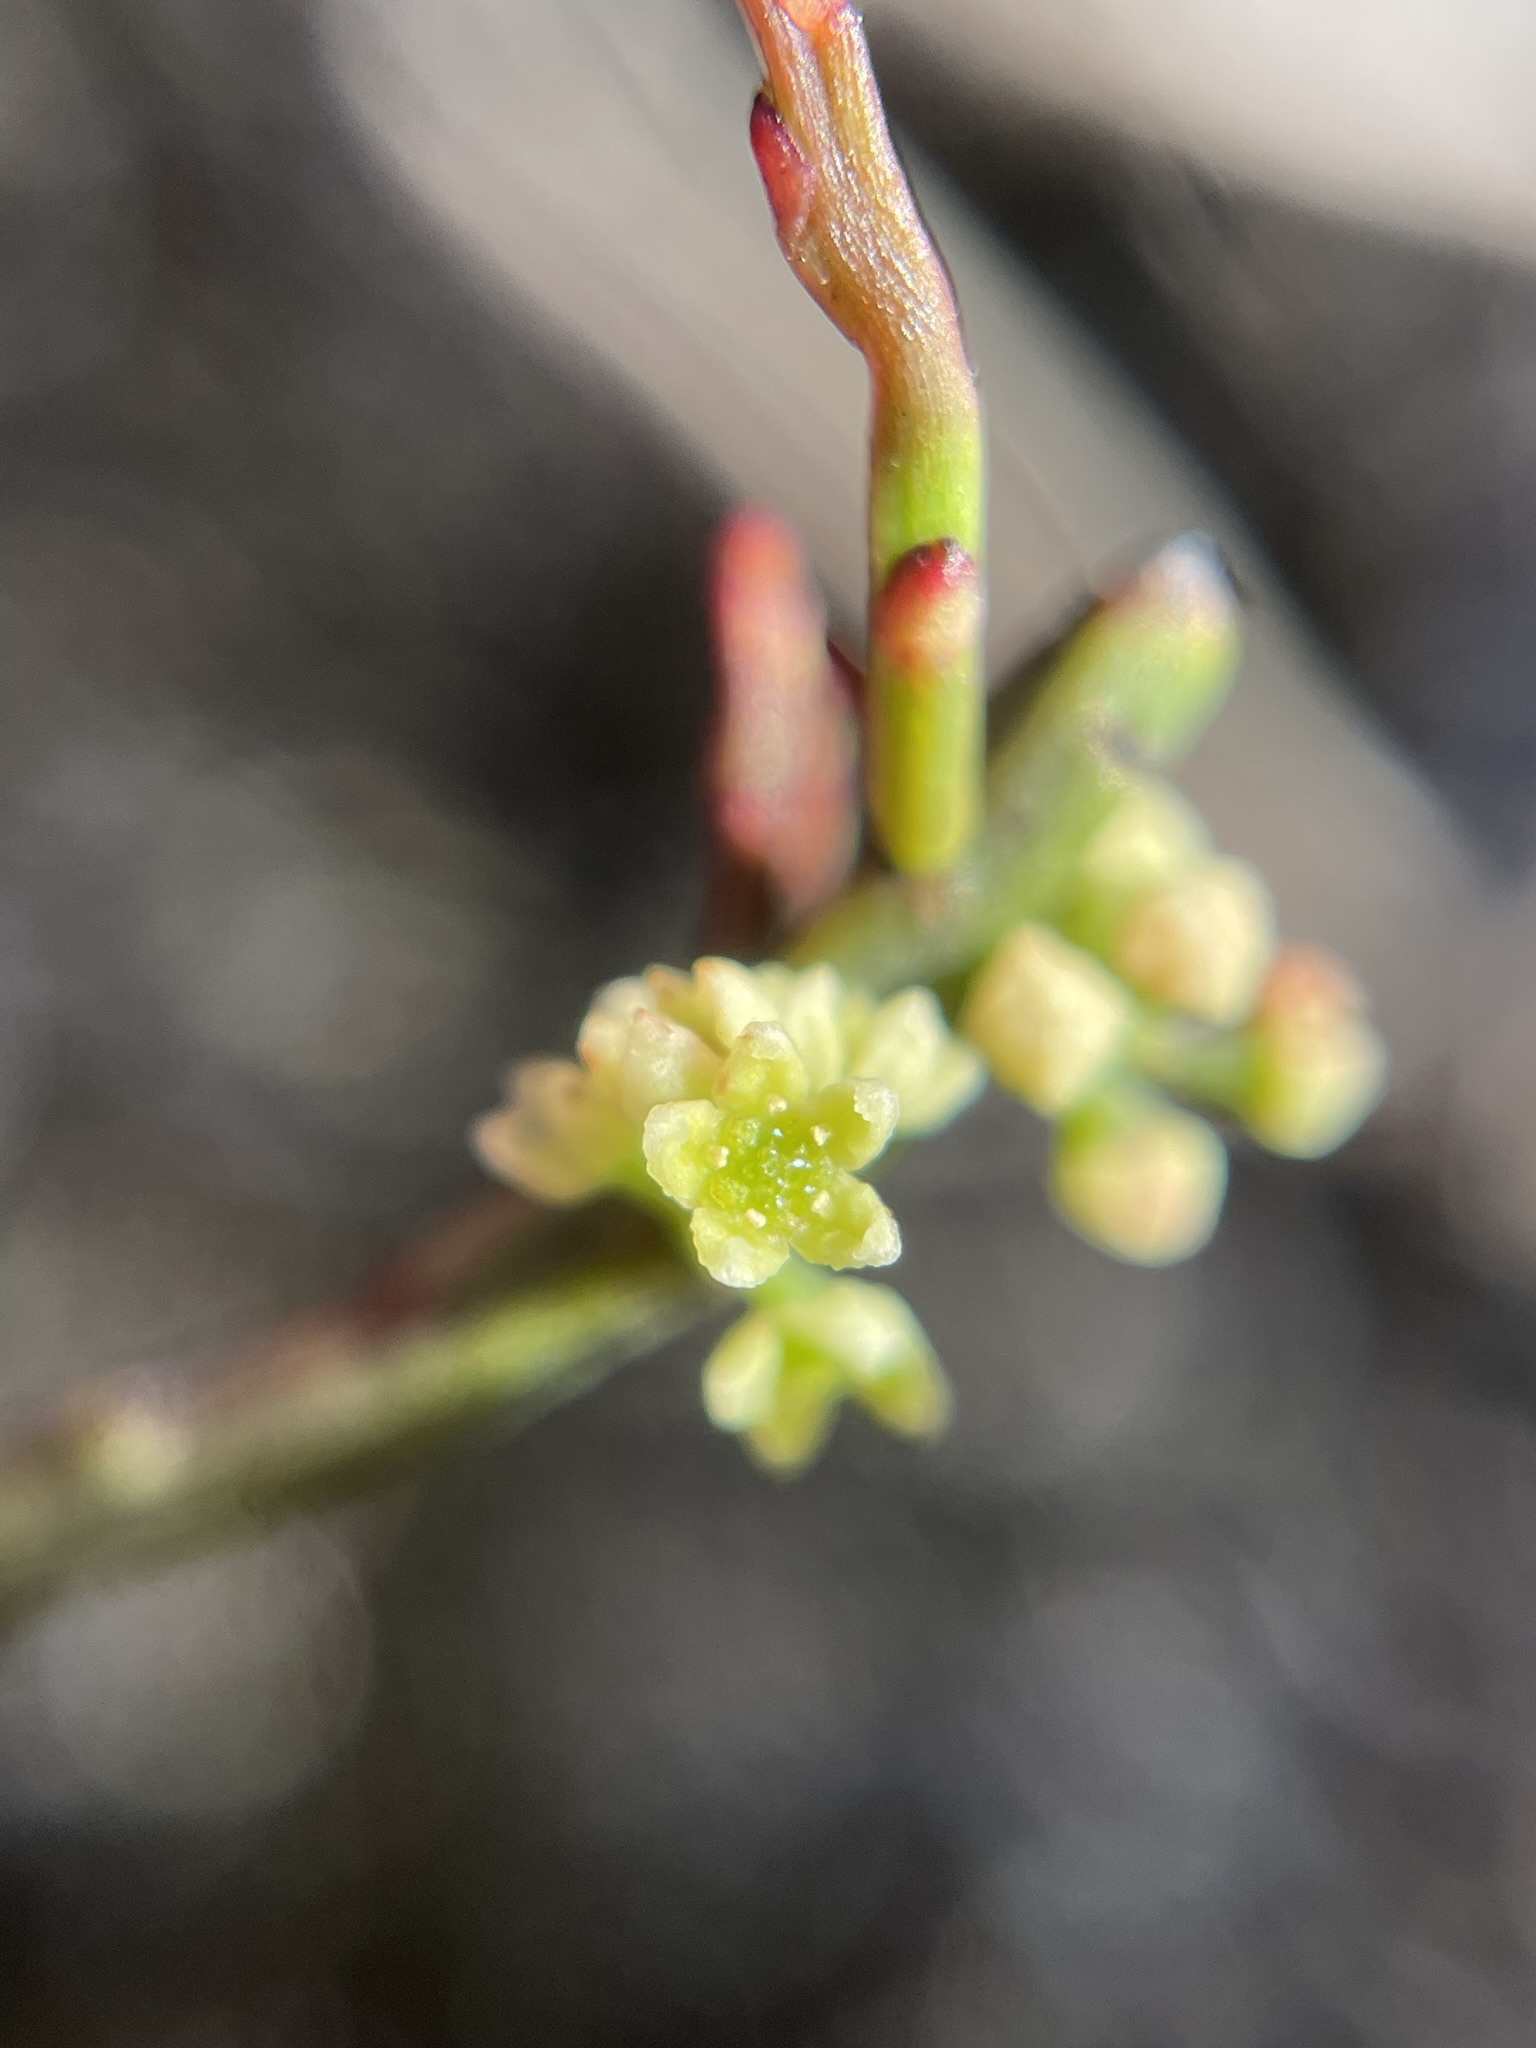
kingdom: Plantae
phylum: Tracheophyta
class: Magnoliopsida
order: Santalales
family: Santalaceae
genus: Exocarpos
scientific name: Exocarpos humifusus
